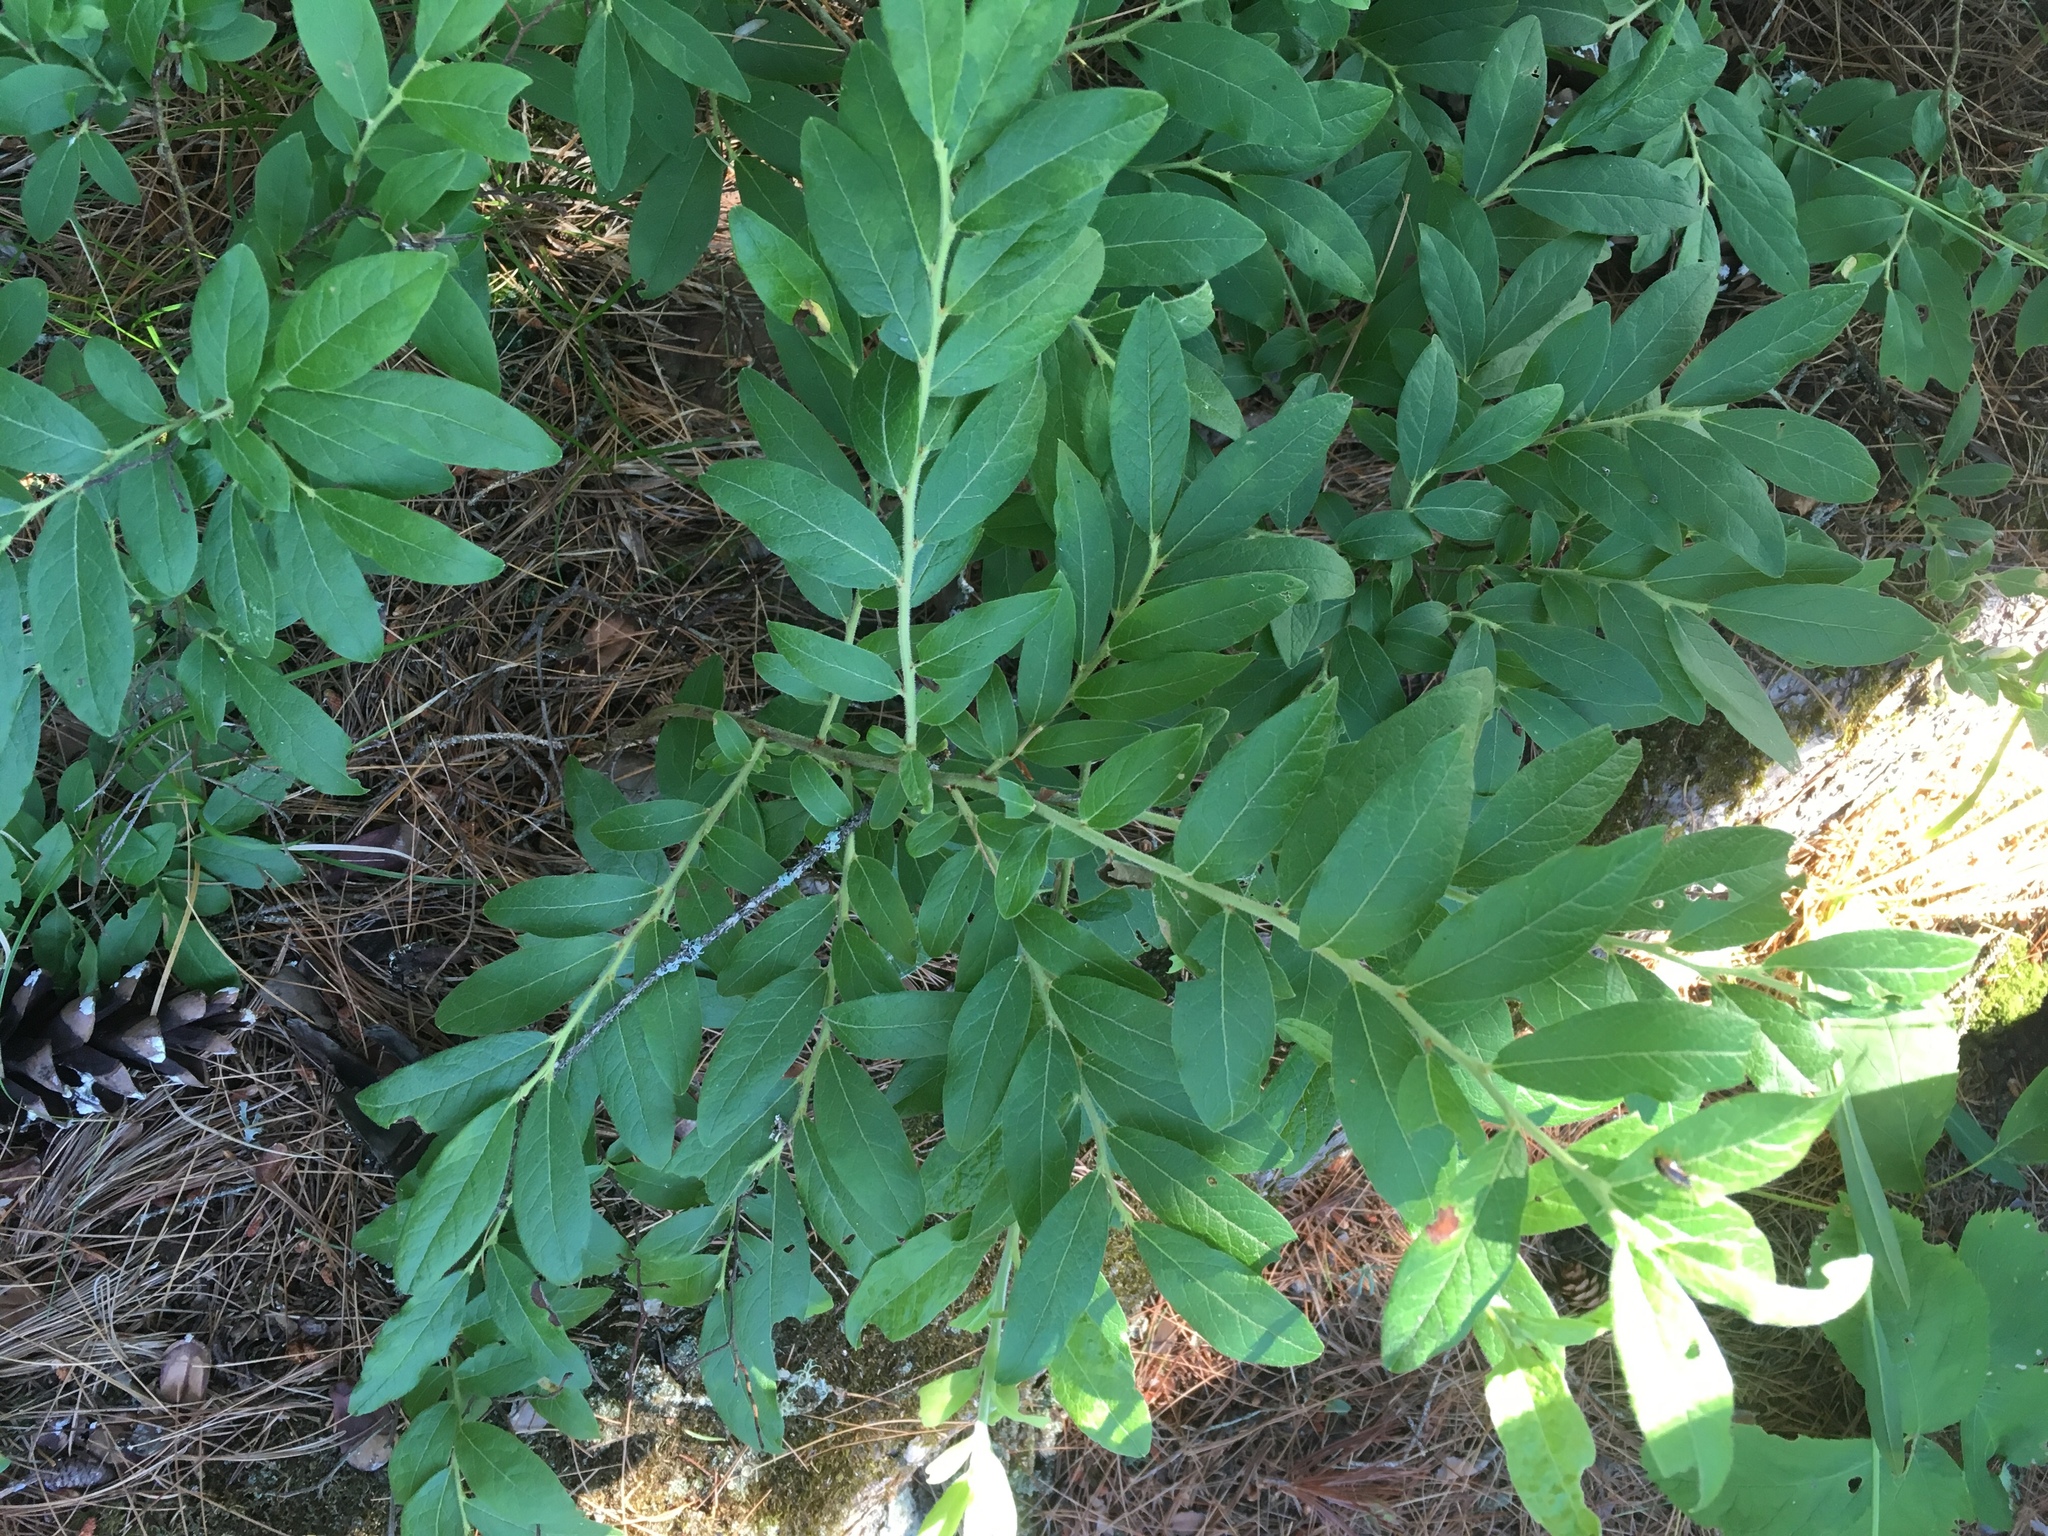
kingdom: Plantae
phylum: Tracheophyta
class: Magnoliopsida
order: Ericales
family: Ericaceae
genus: Vaccinium
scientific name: Vaccinium angustifolium
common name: Early lowbush blueberry
